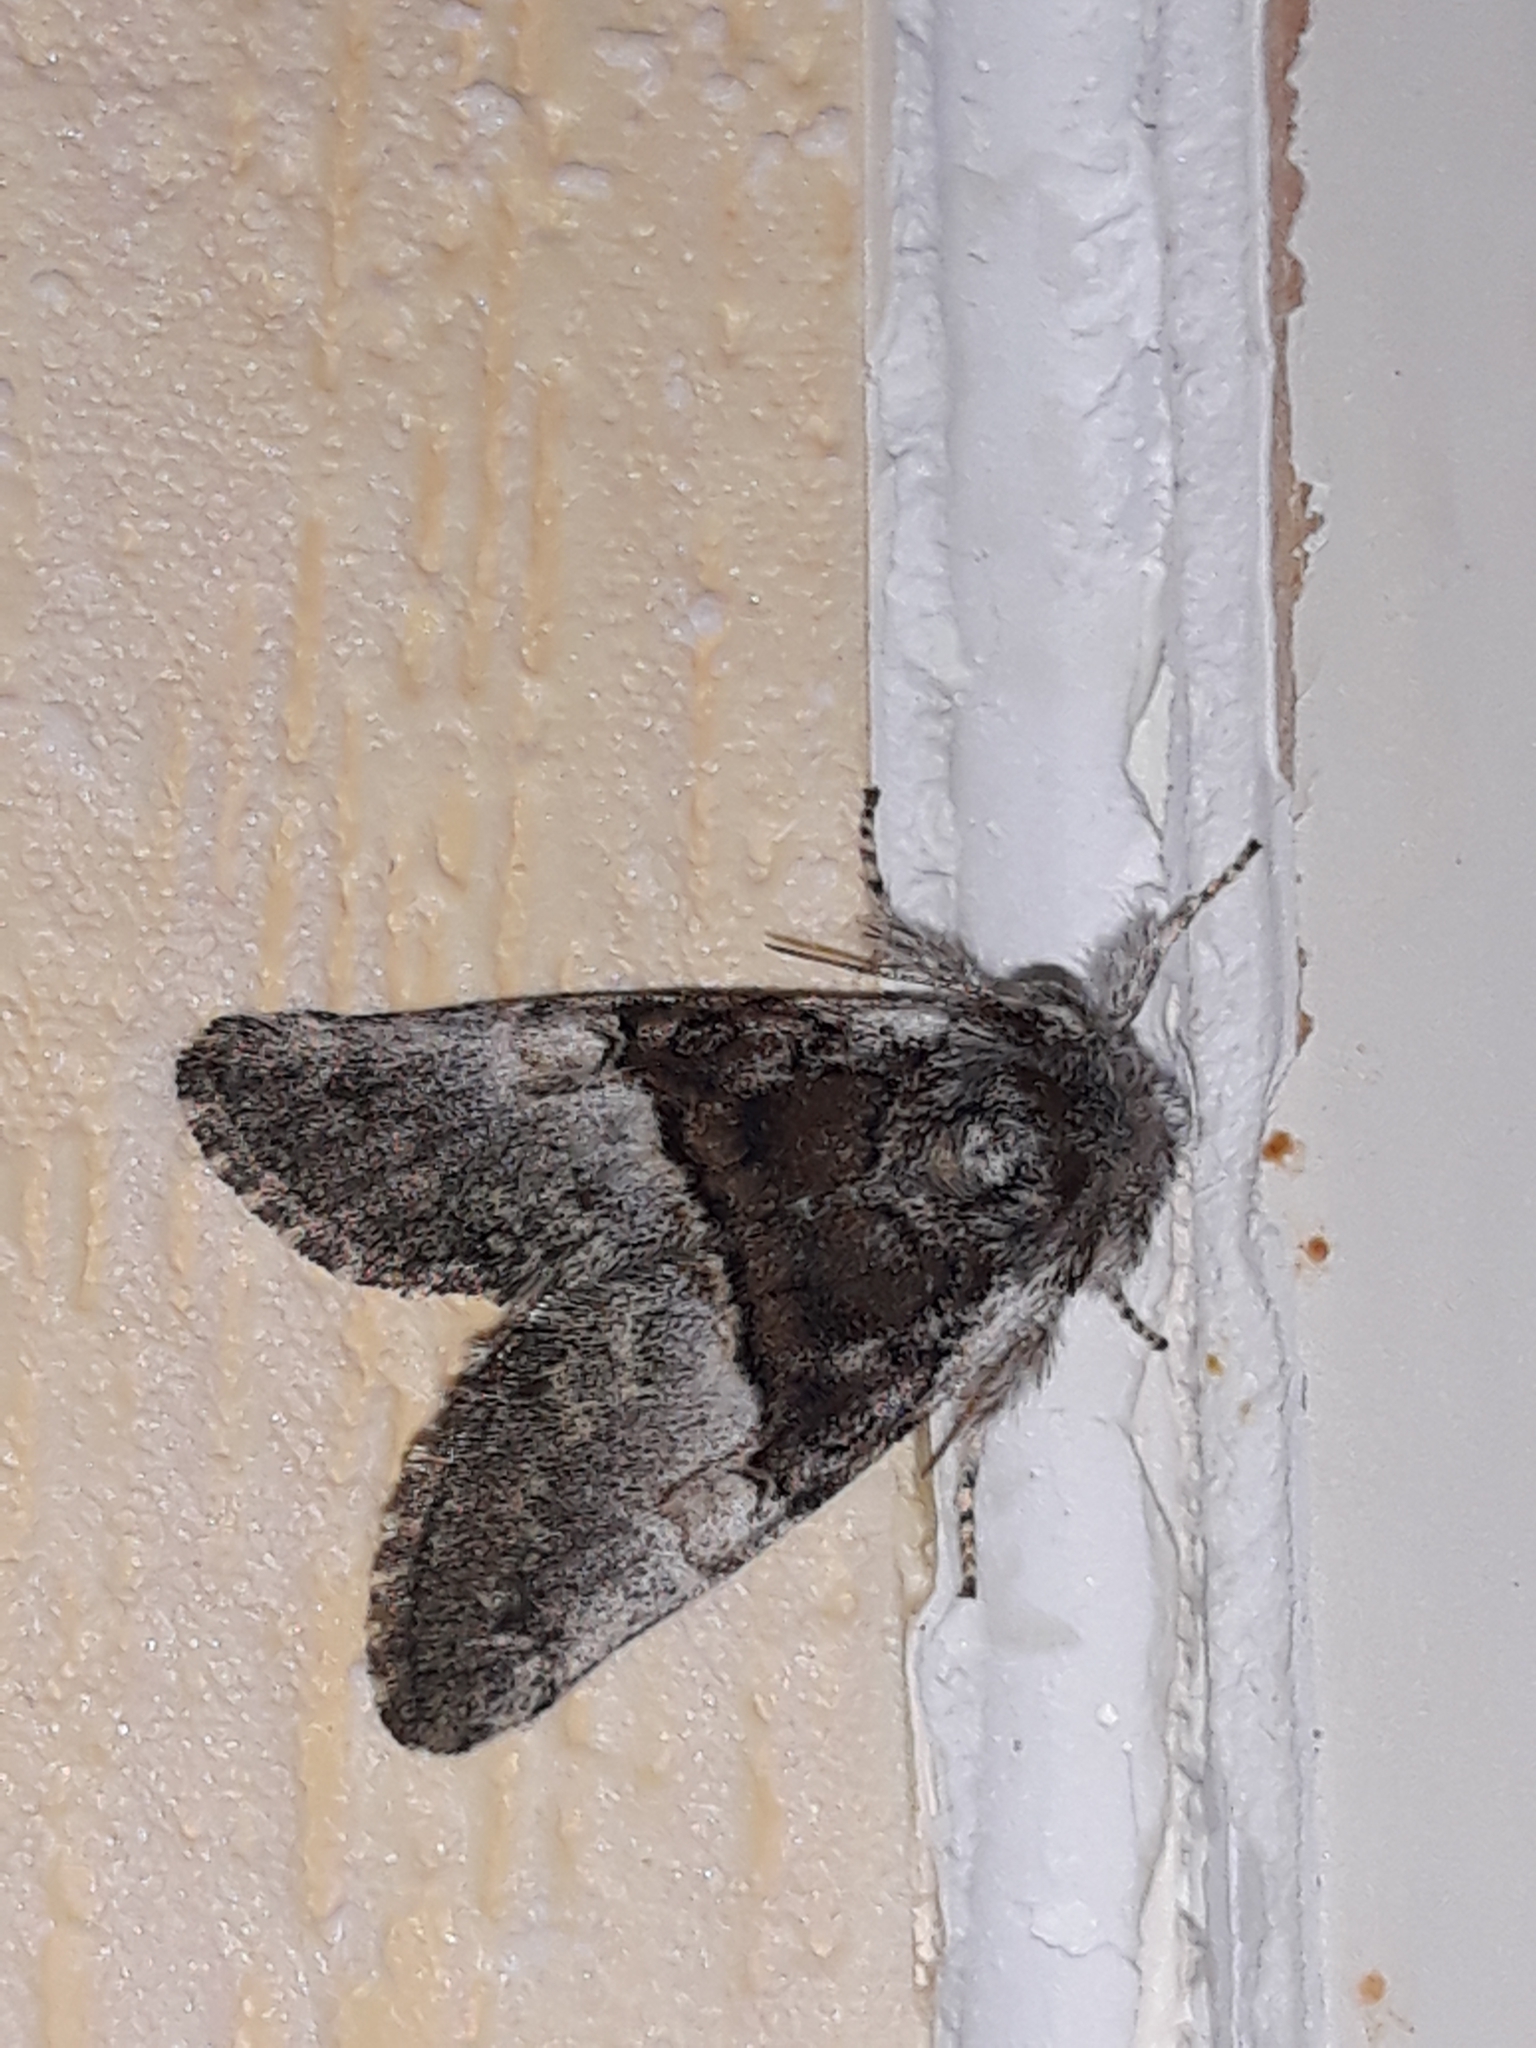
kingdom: Animalia
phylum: Arthropoda
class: Insecta
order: Lepidoptera
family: Noctuidae
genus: Colocasia
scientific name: Colocasia coryli
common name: Nut-tree tussock
